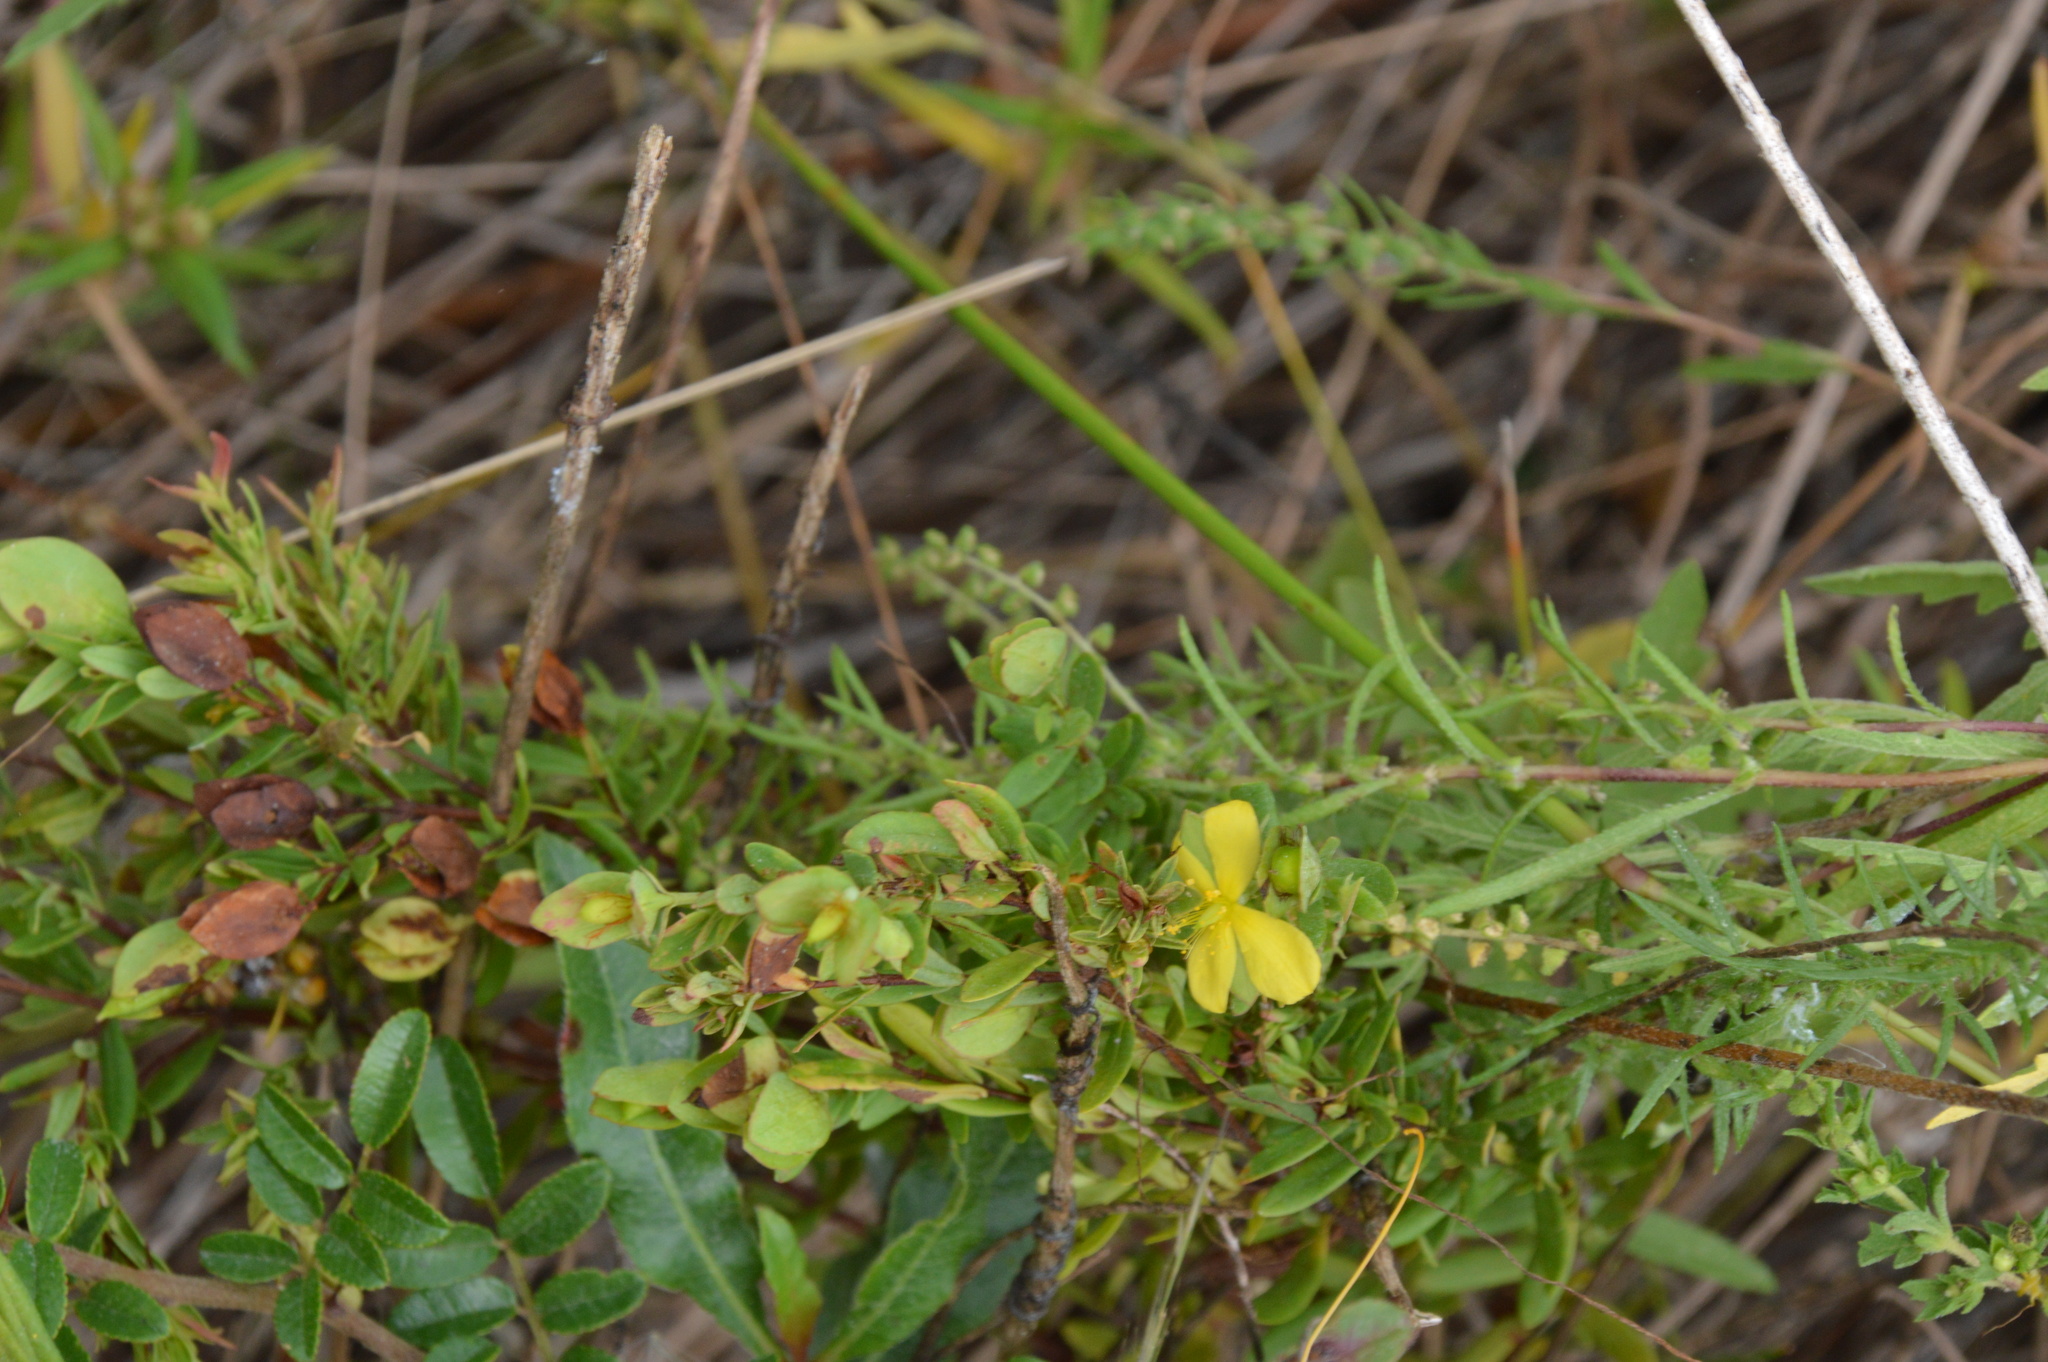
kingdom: Plantae
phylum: Tracheophyta
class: Magnoliopsida
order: Malpighiales
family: Hypericaceae
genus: Hypericum
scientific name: Hypericum hypericoides
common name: St. andrew's cross
